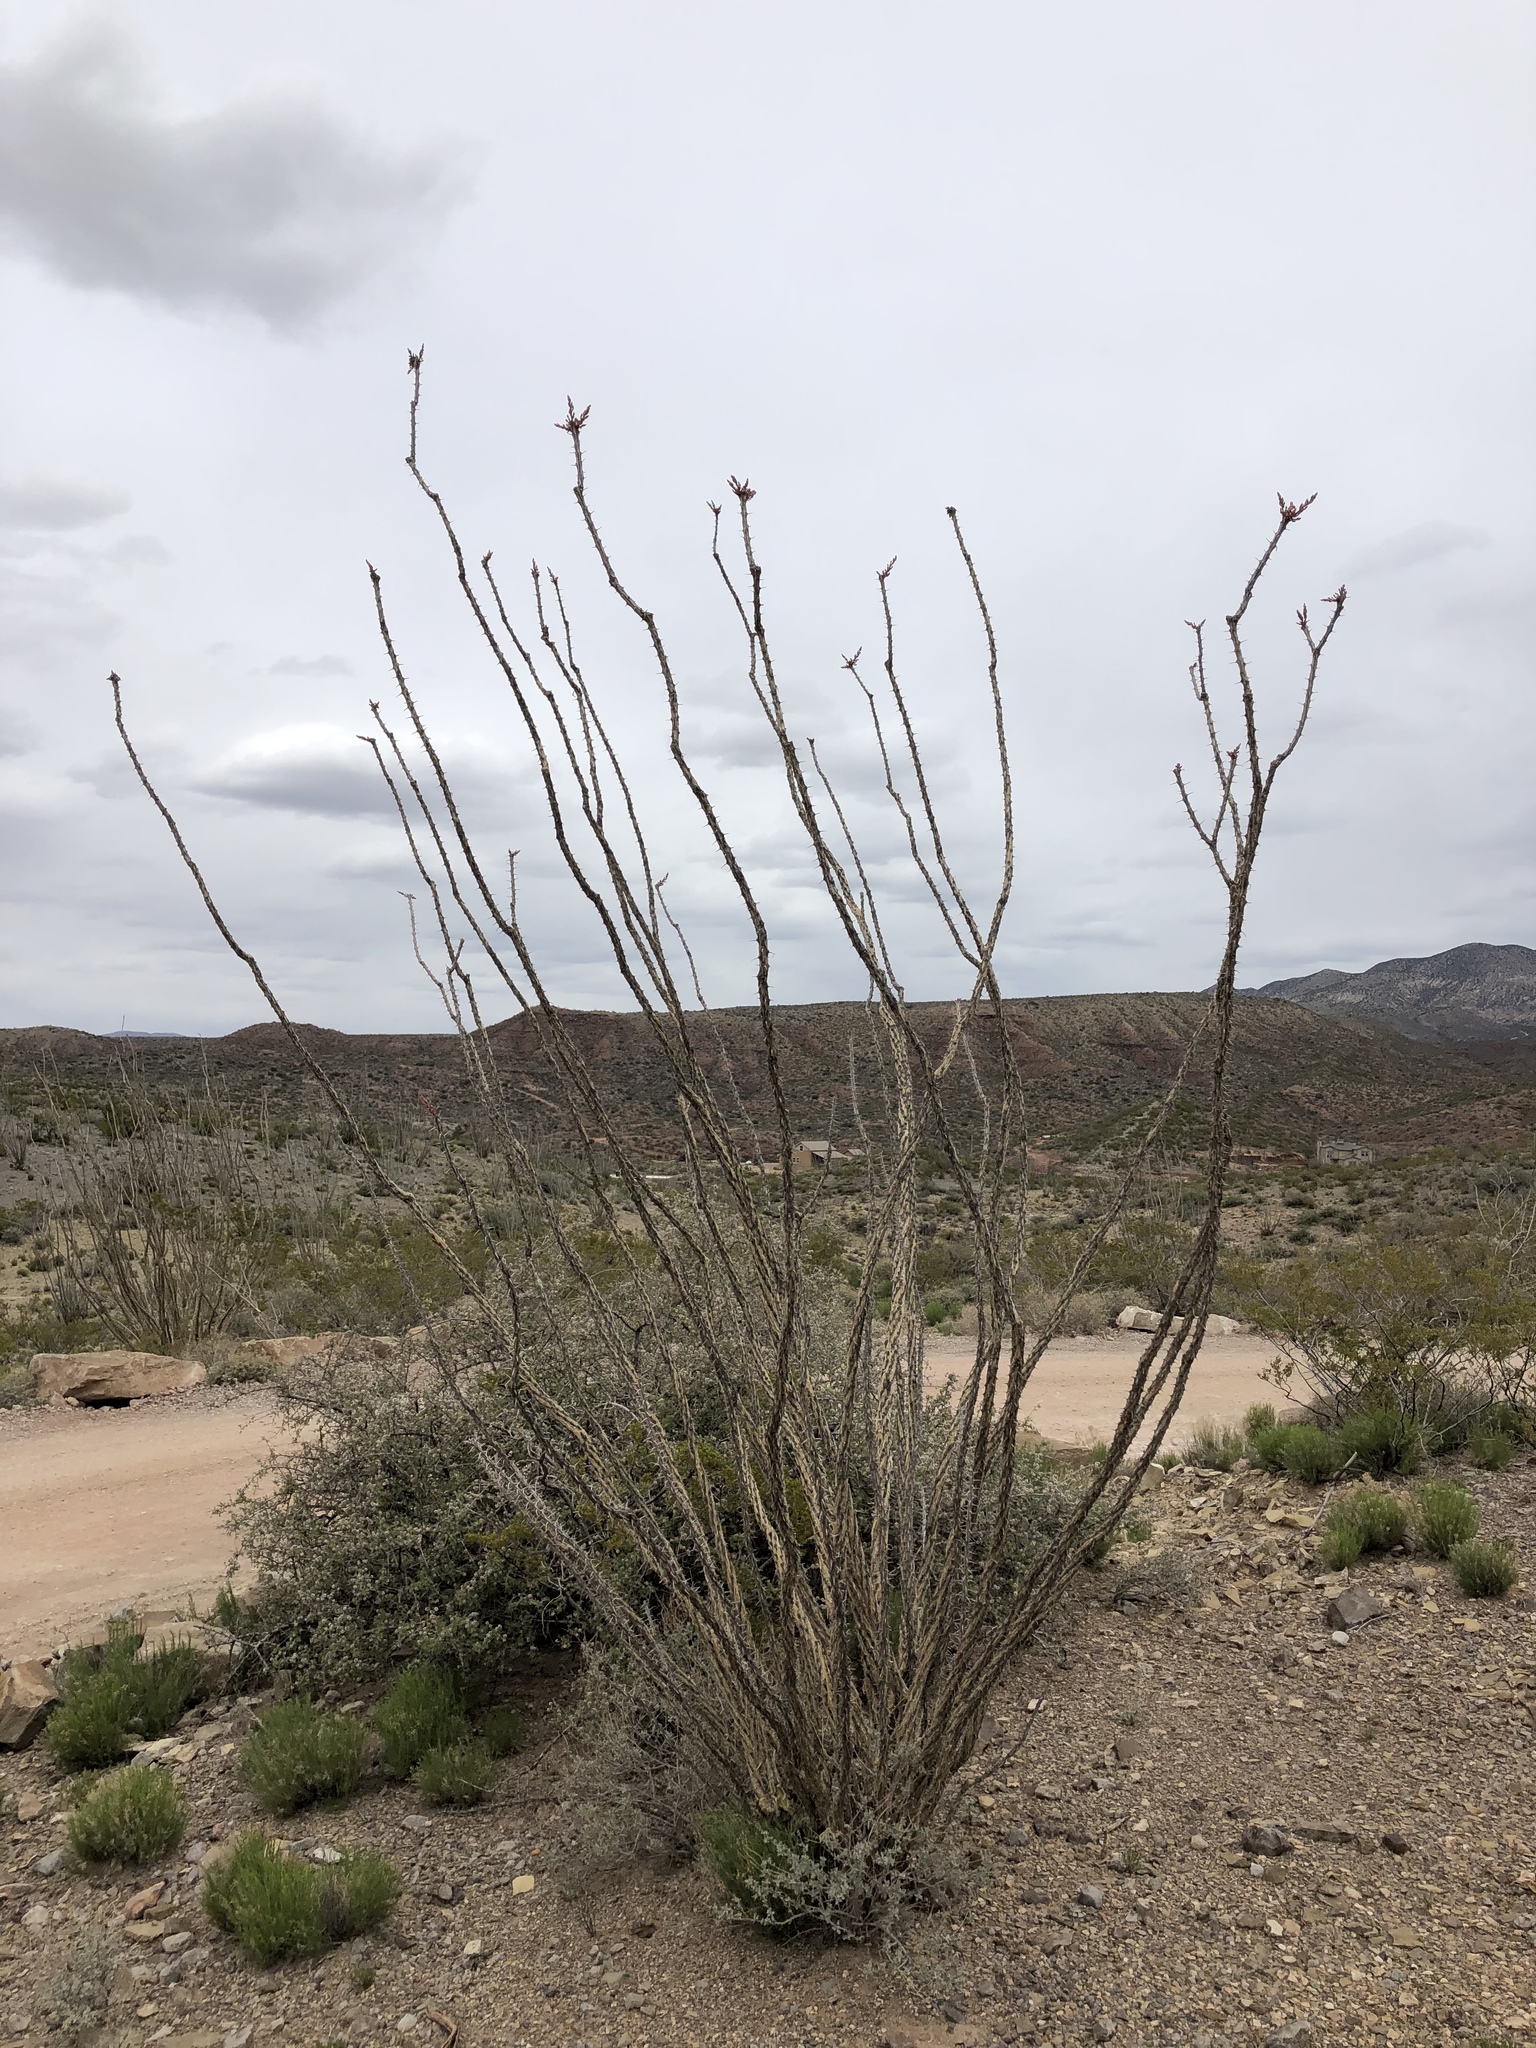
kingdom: Plantae
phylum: Tracheophyta
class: Magnoliopsida
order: Ericales
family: Fouquieriaceae
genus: Fouquieria
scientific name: Fouquieria splendens
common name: Vine-cactus
